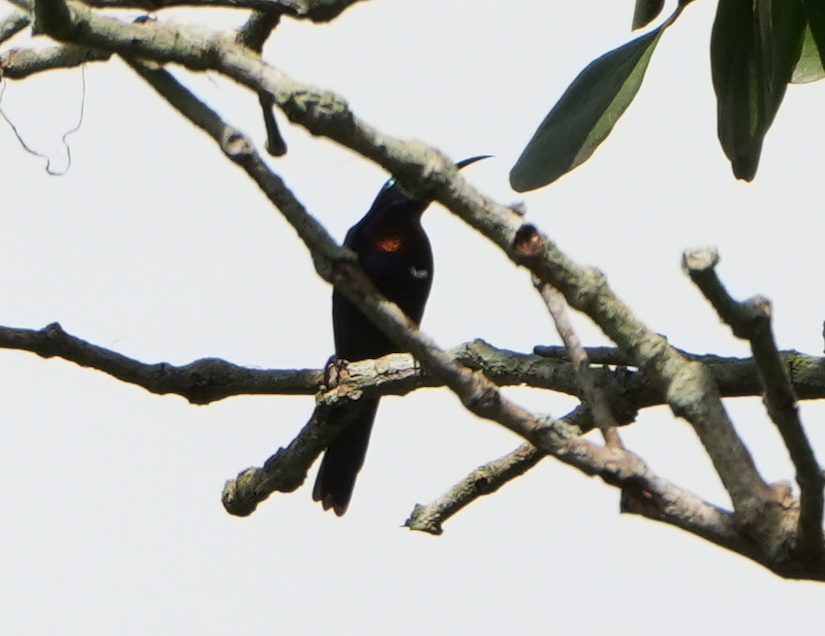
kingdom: Animalia
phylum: Chordata
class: Aves
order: Passeriformes
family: Nectariniidae
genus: Leptocoma
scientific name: Leptocoma calcostetha
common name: Copper-throated sunbird
